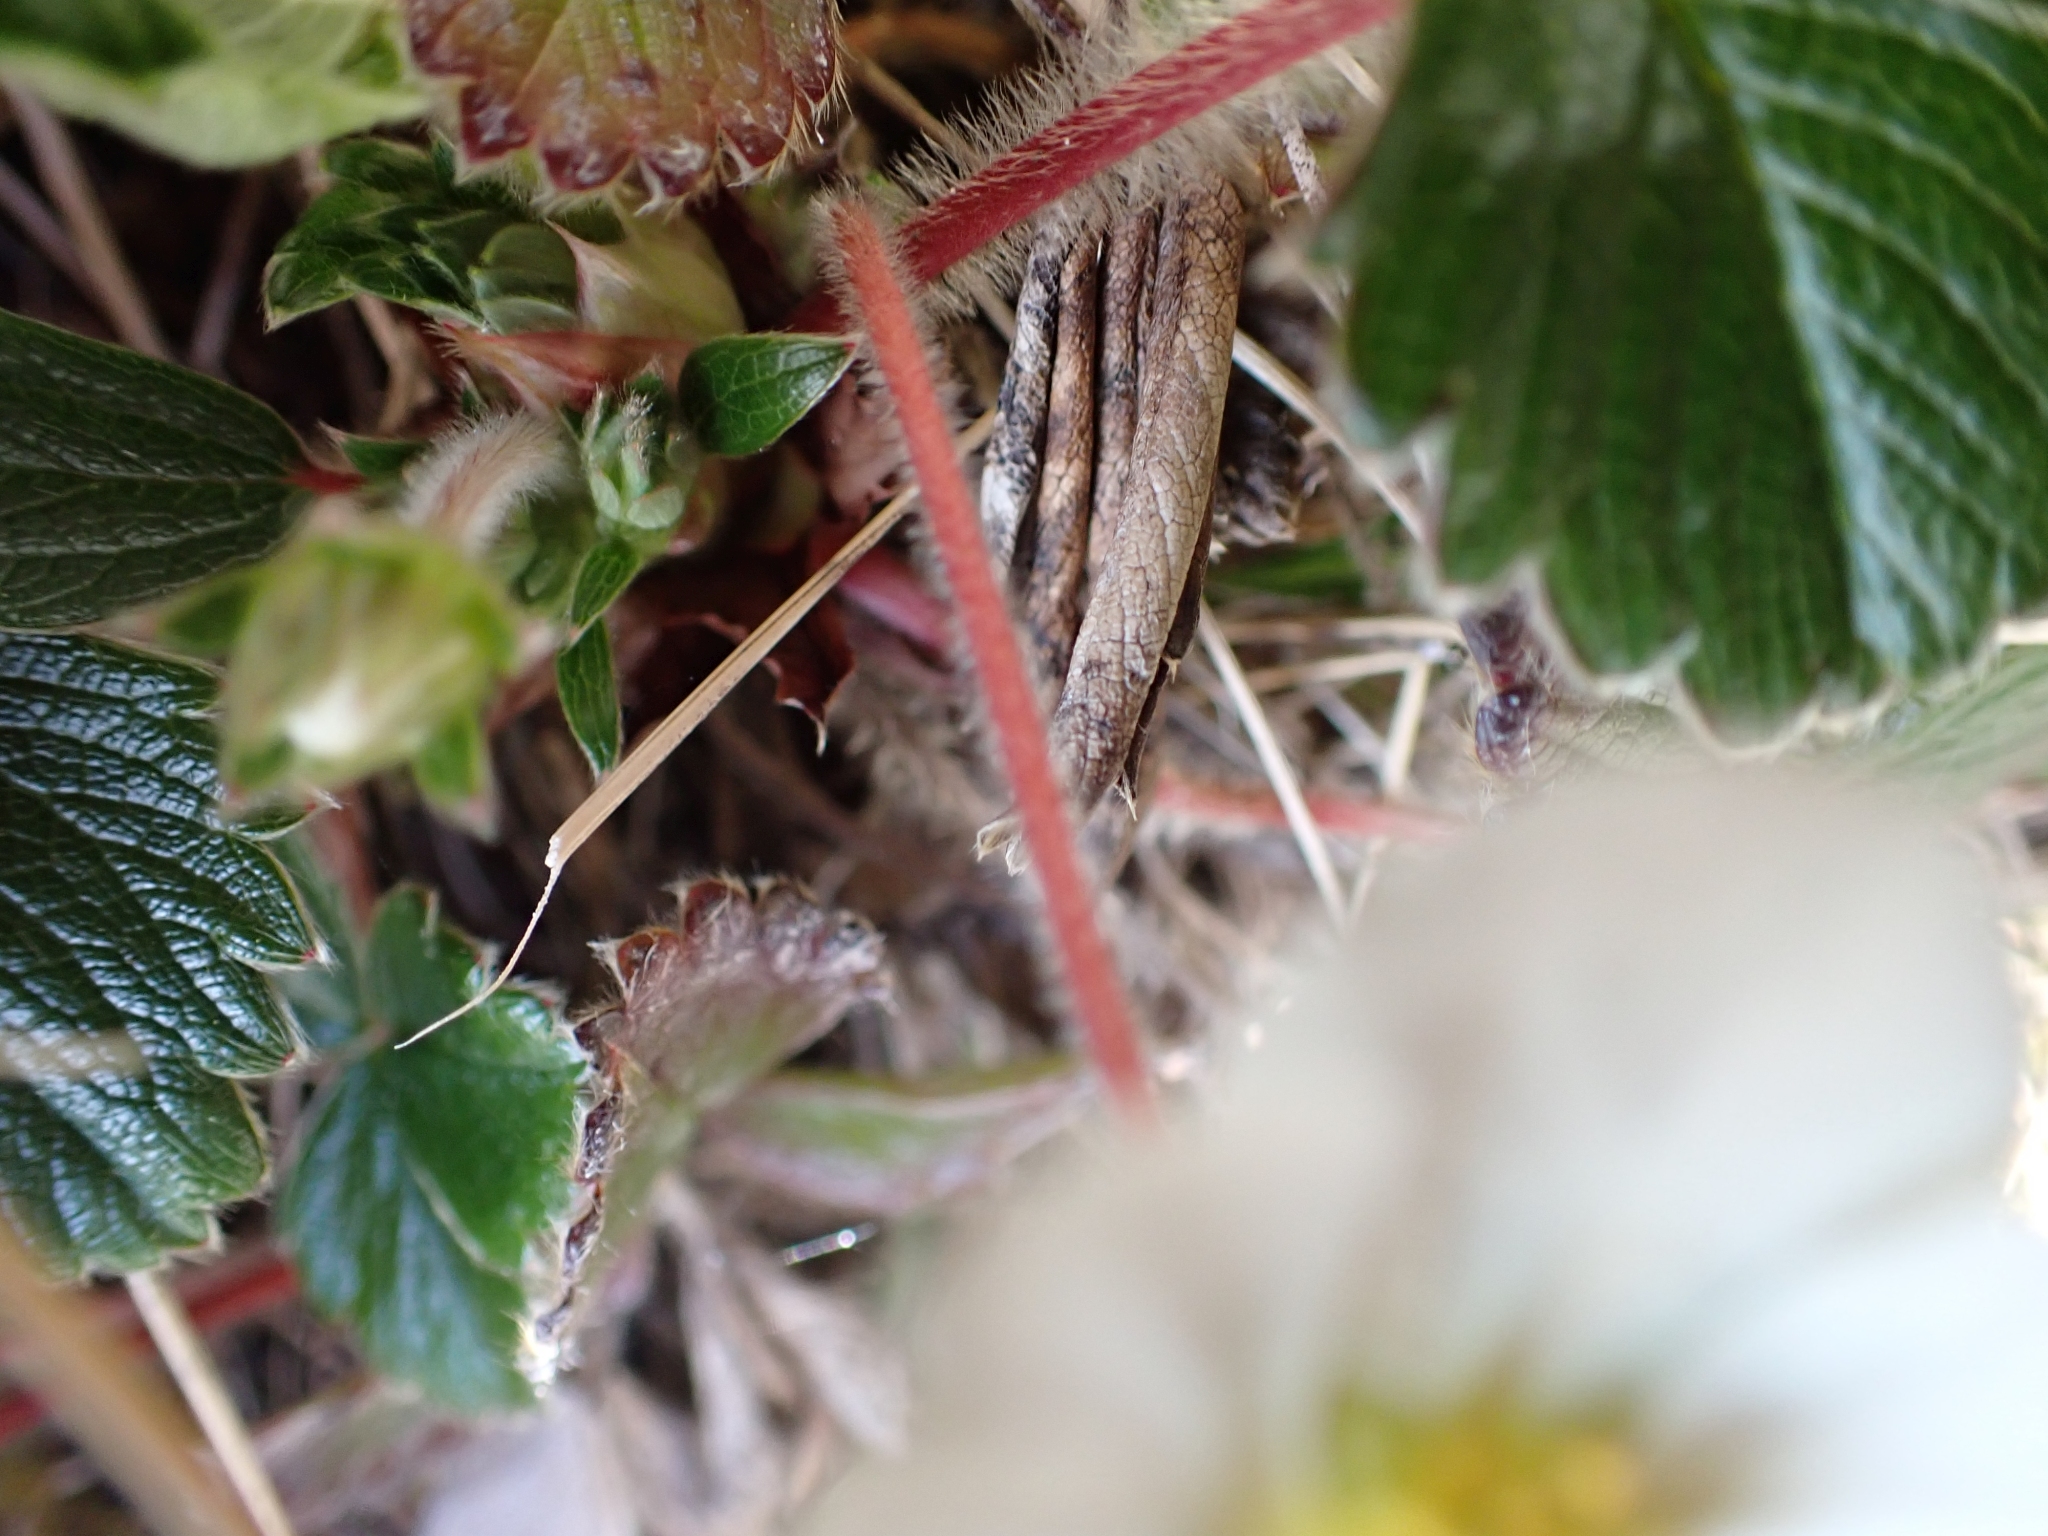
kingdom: Plantae
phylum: Tracheophyta
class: Magnoliopsida
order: Rosales
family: Rosaceae
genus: Fragaria
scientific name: Fragaria chiloensis
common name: Beach strawberry
